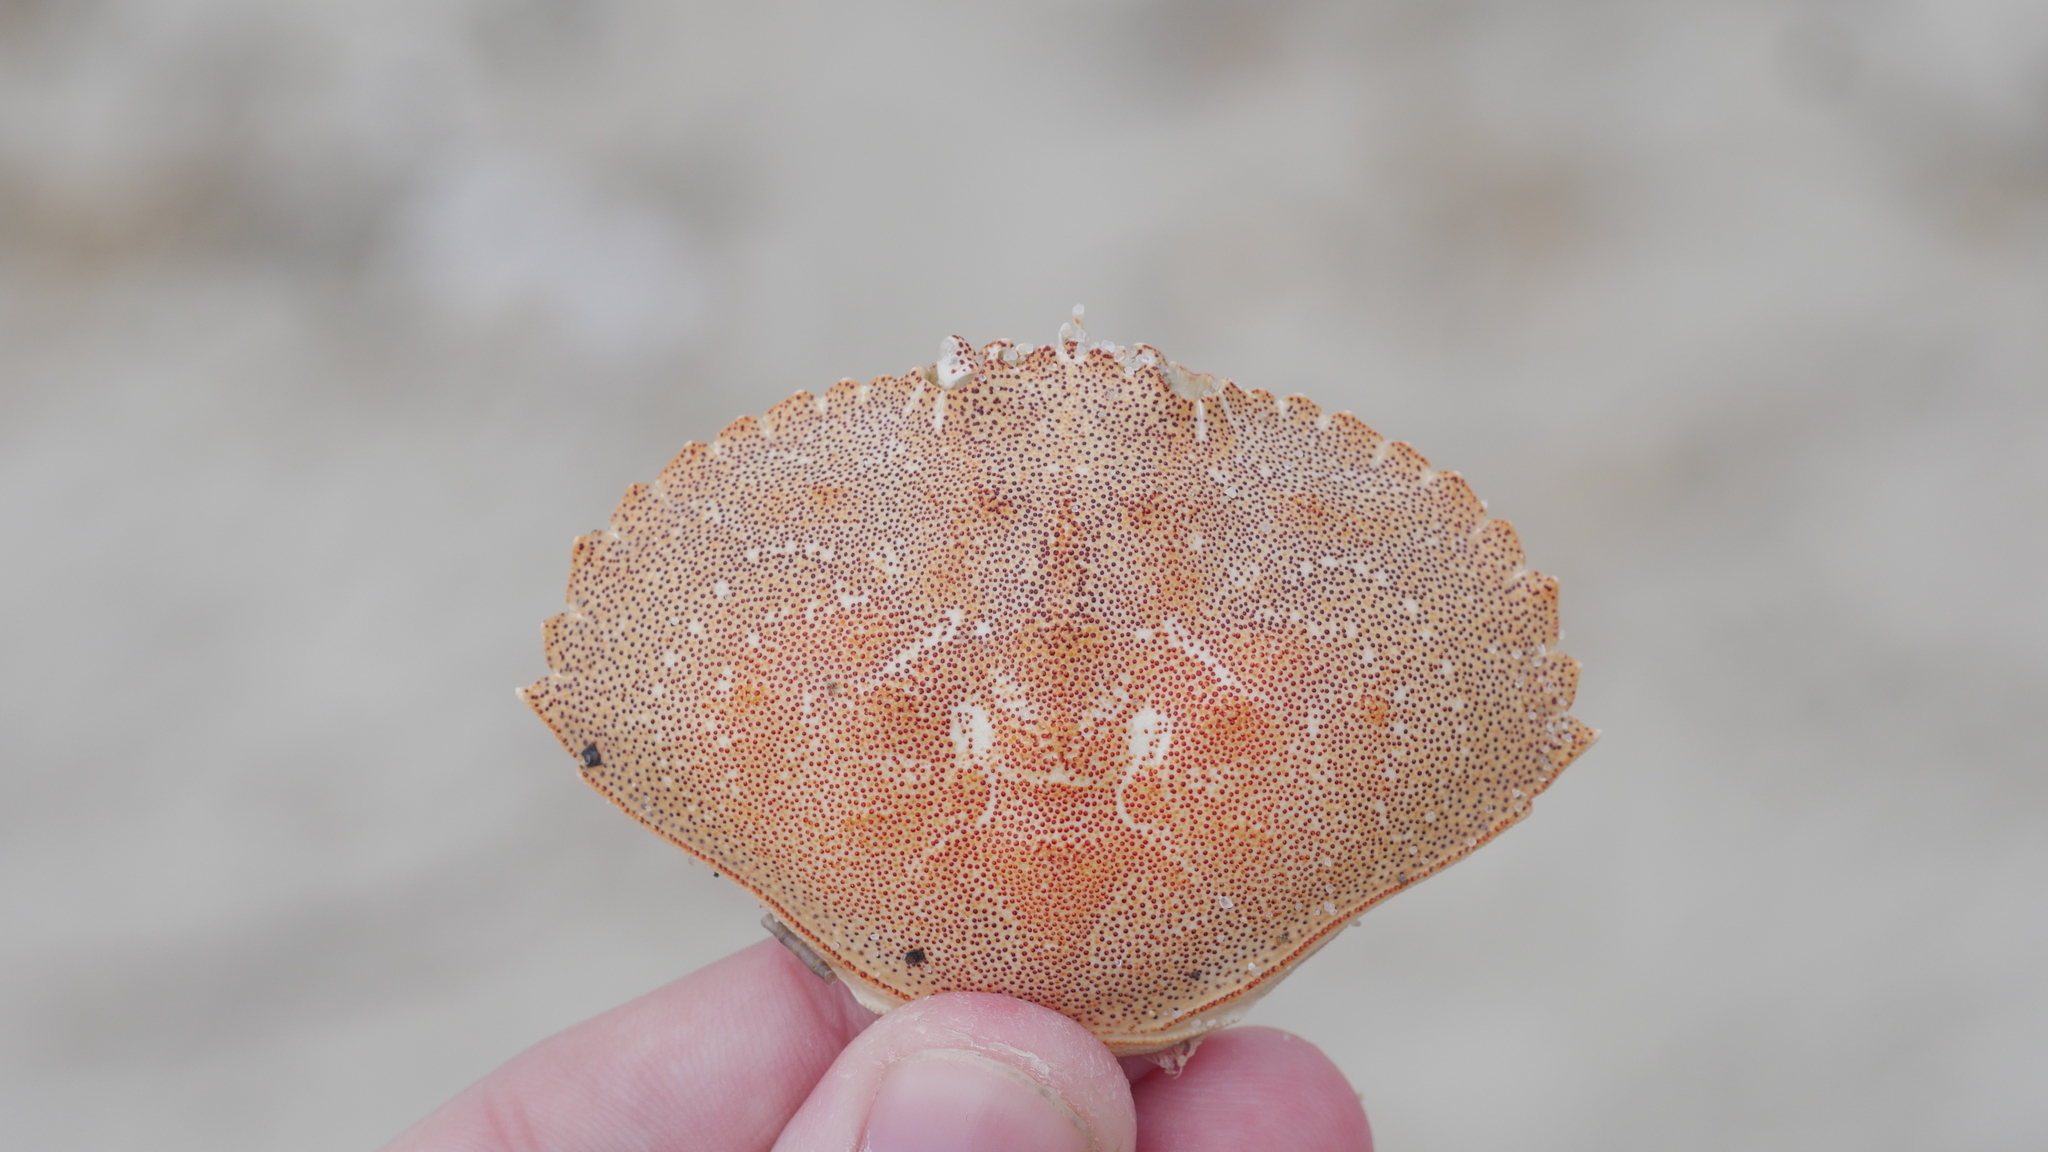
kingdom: Animalia
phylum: Arthropoda
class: Malacostraca
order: Decapoda
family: Cancridae
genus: Cancer
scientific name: Cancer irroratus
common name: Atlantic rock crab
